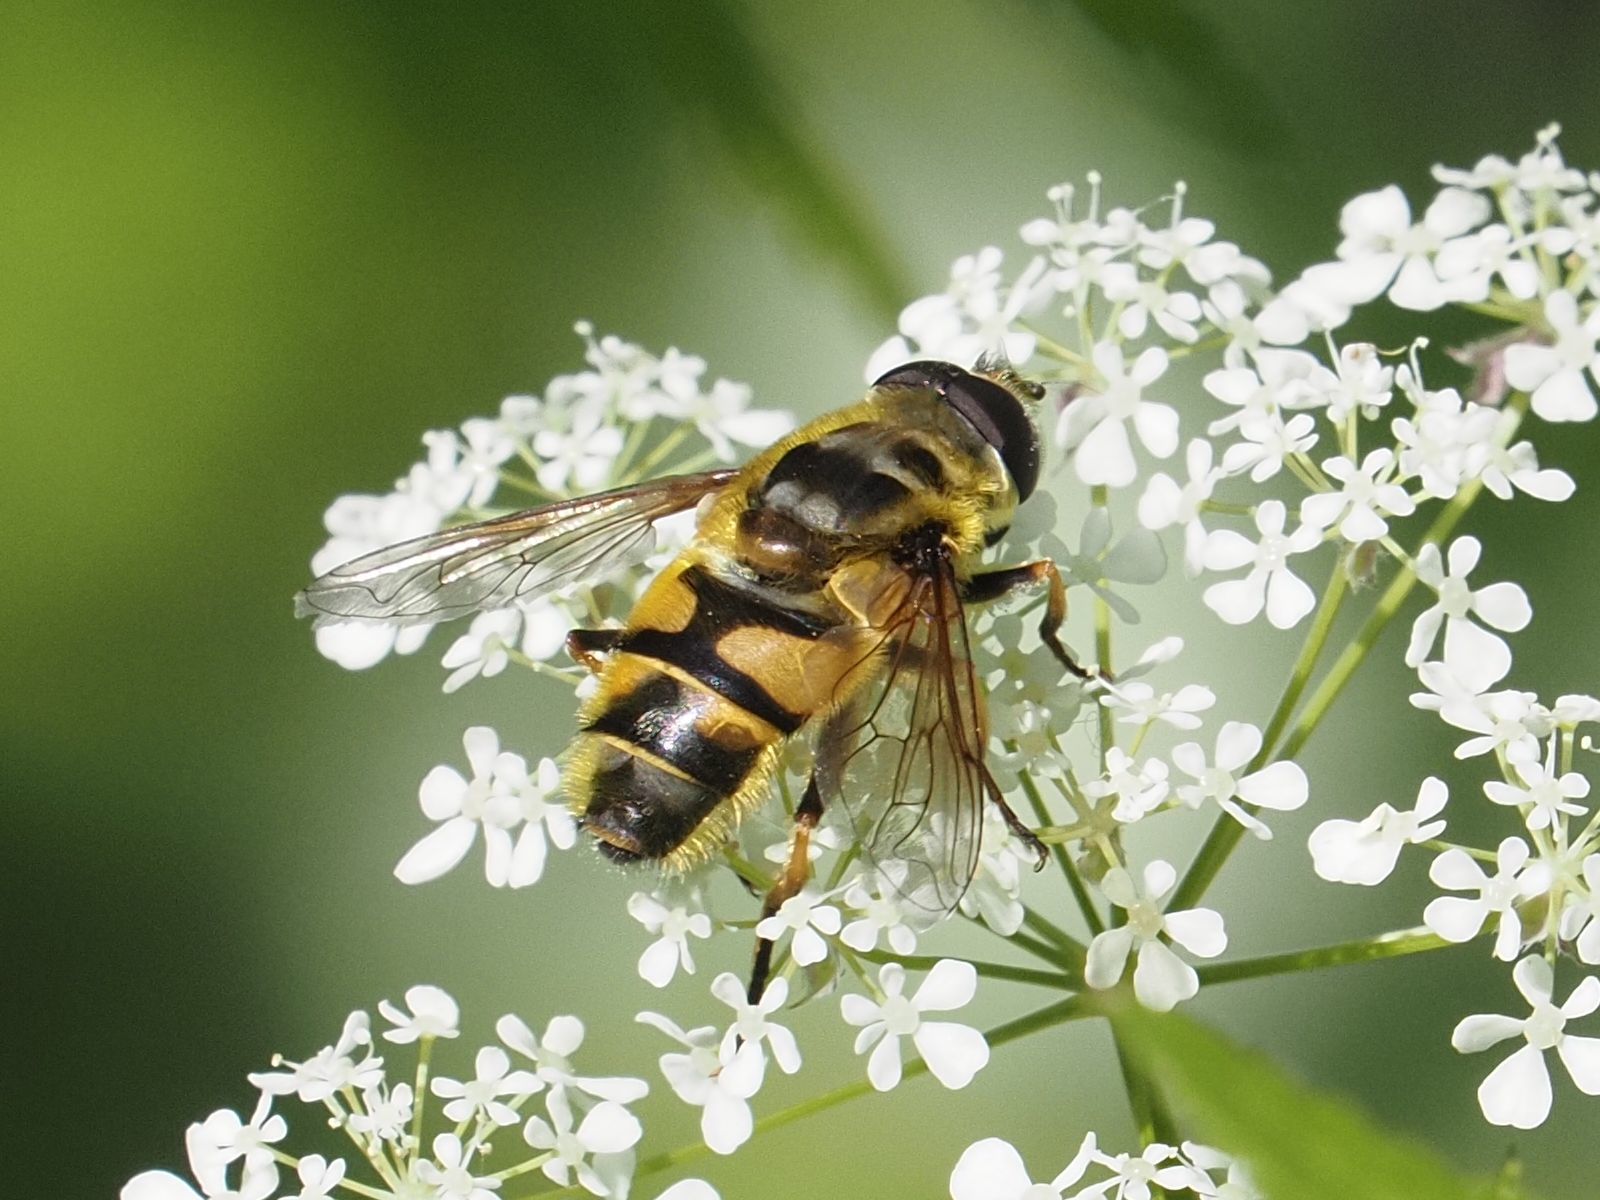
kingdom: Animalia
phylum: Arthropoda
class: Insecta
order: Diptera
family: Syrphidae
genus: Myathropa
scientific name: Myathropa florea
